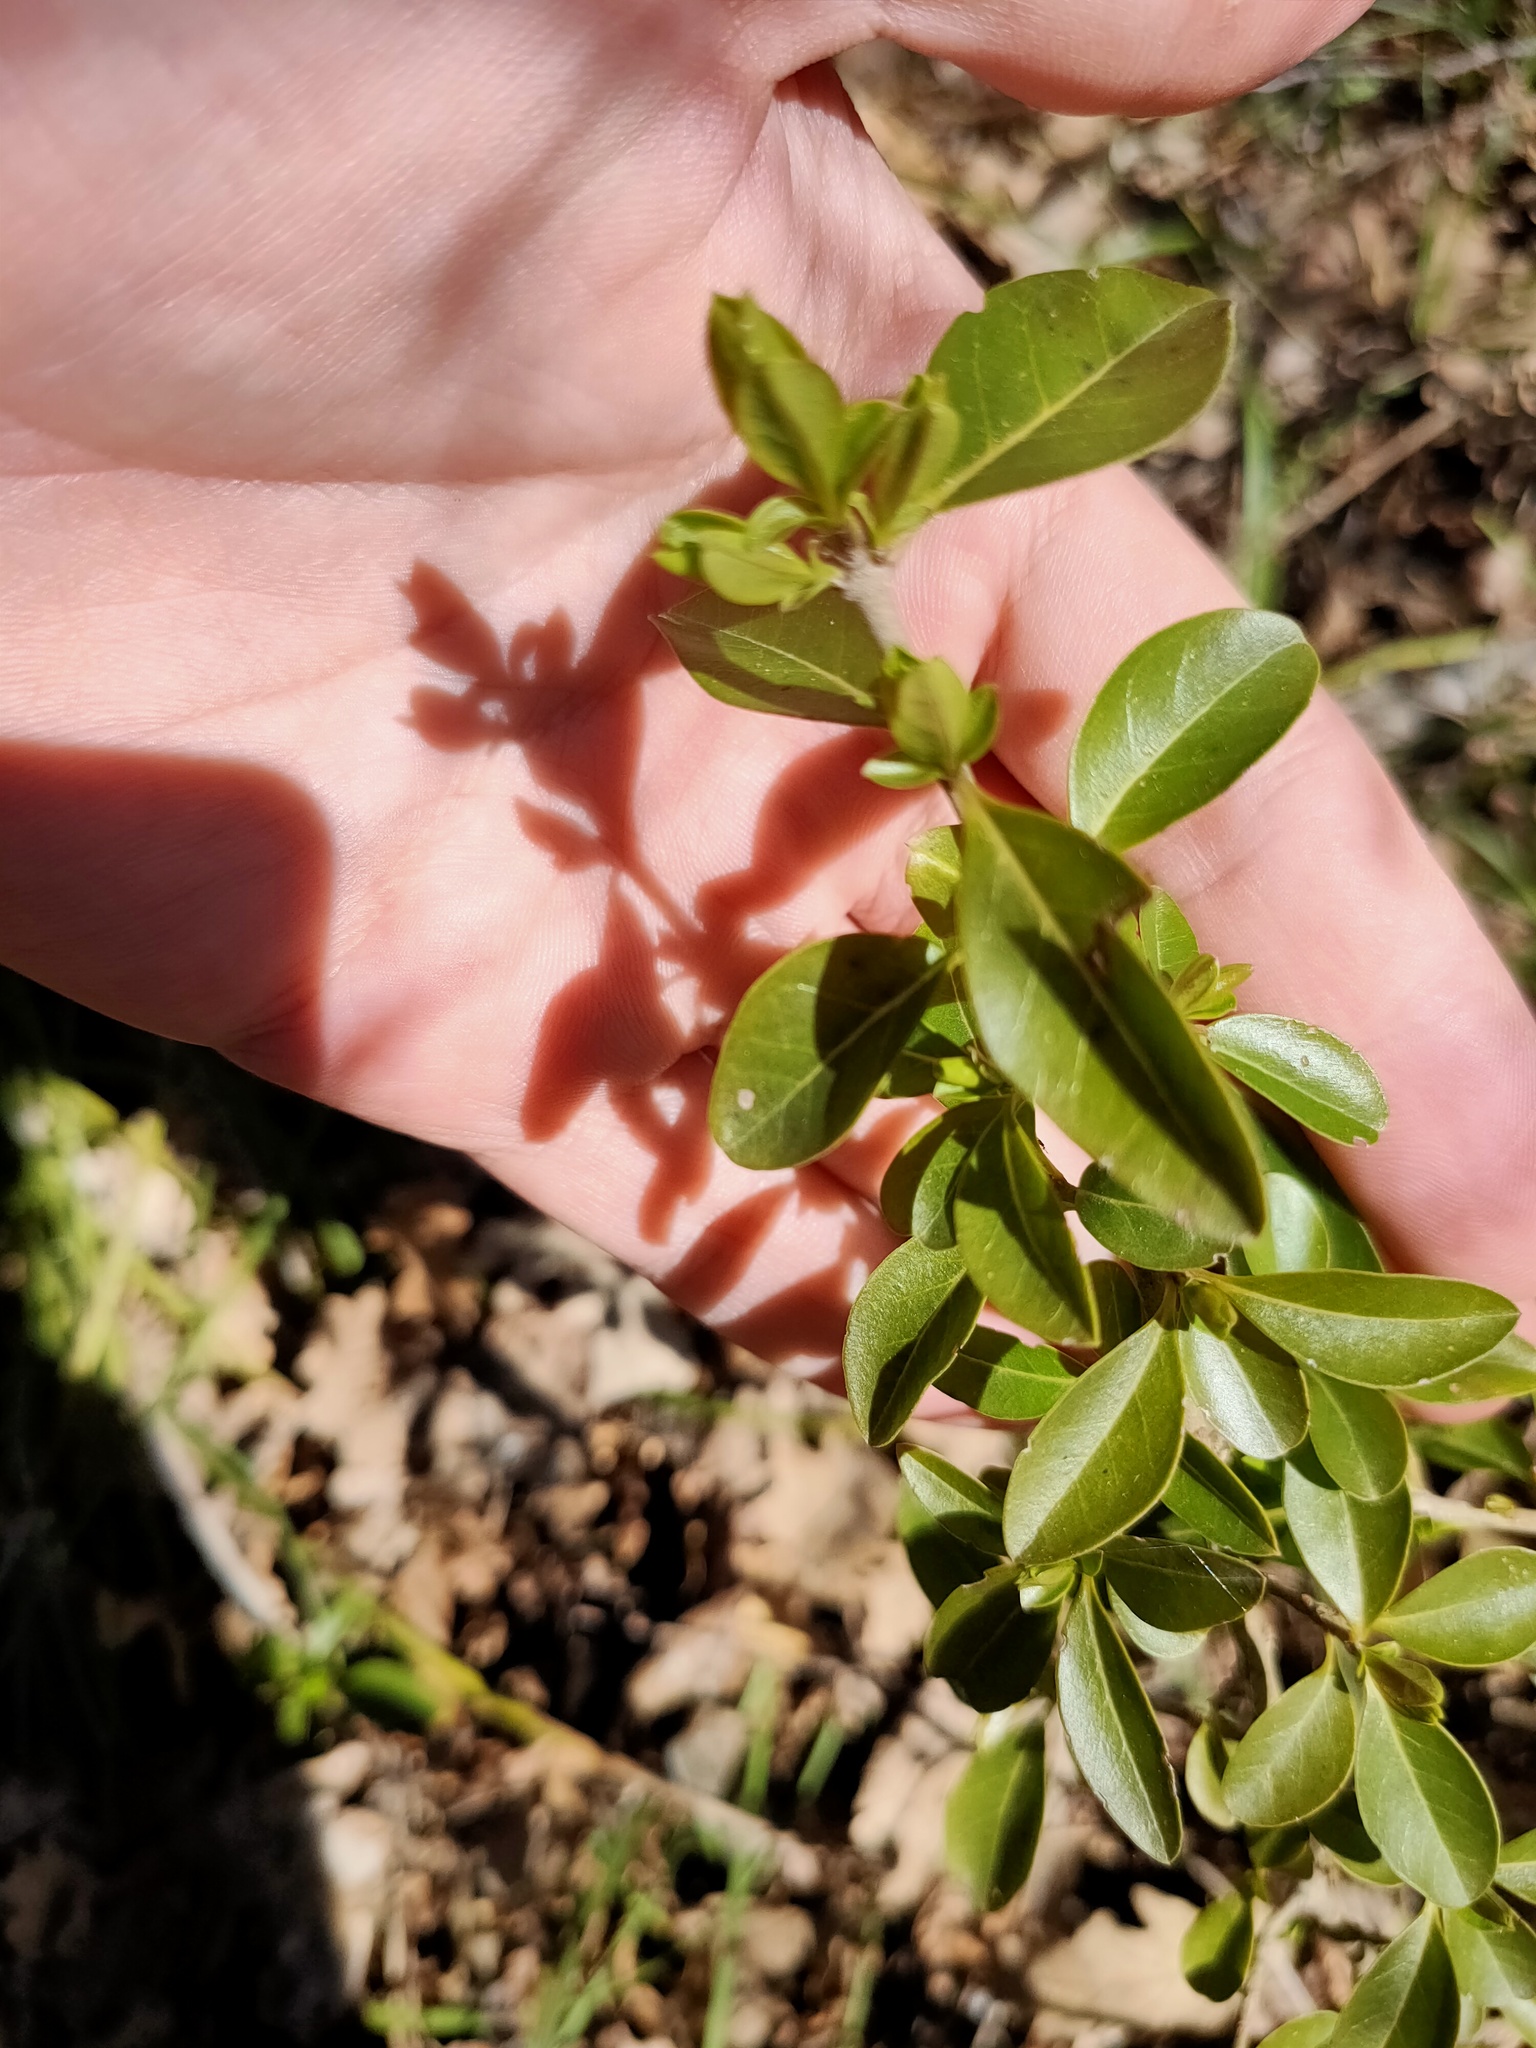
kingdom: Plantae
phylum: Tracheophyta
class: Magnoliopsida
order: Lamiales
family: Oleaceae
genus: Ligustrum
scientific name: Ligustrum vulgare
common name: Wild privet
